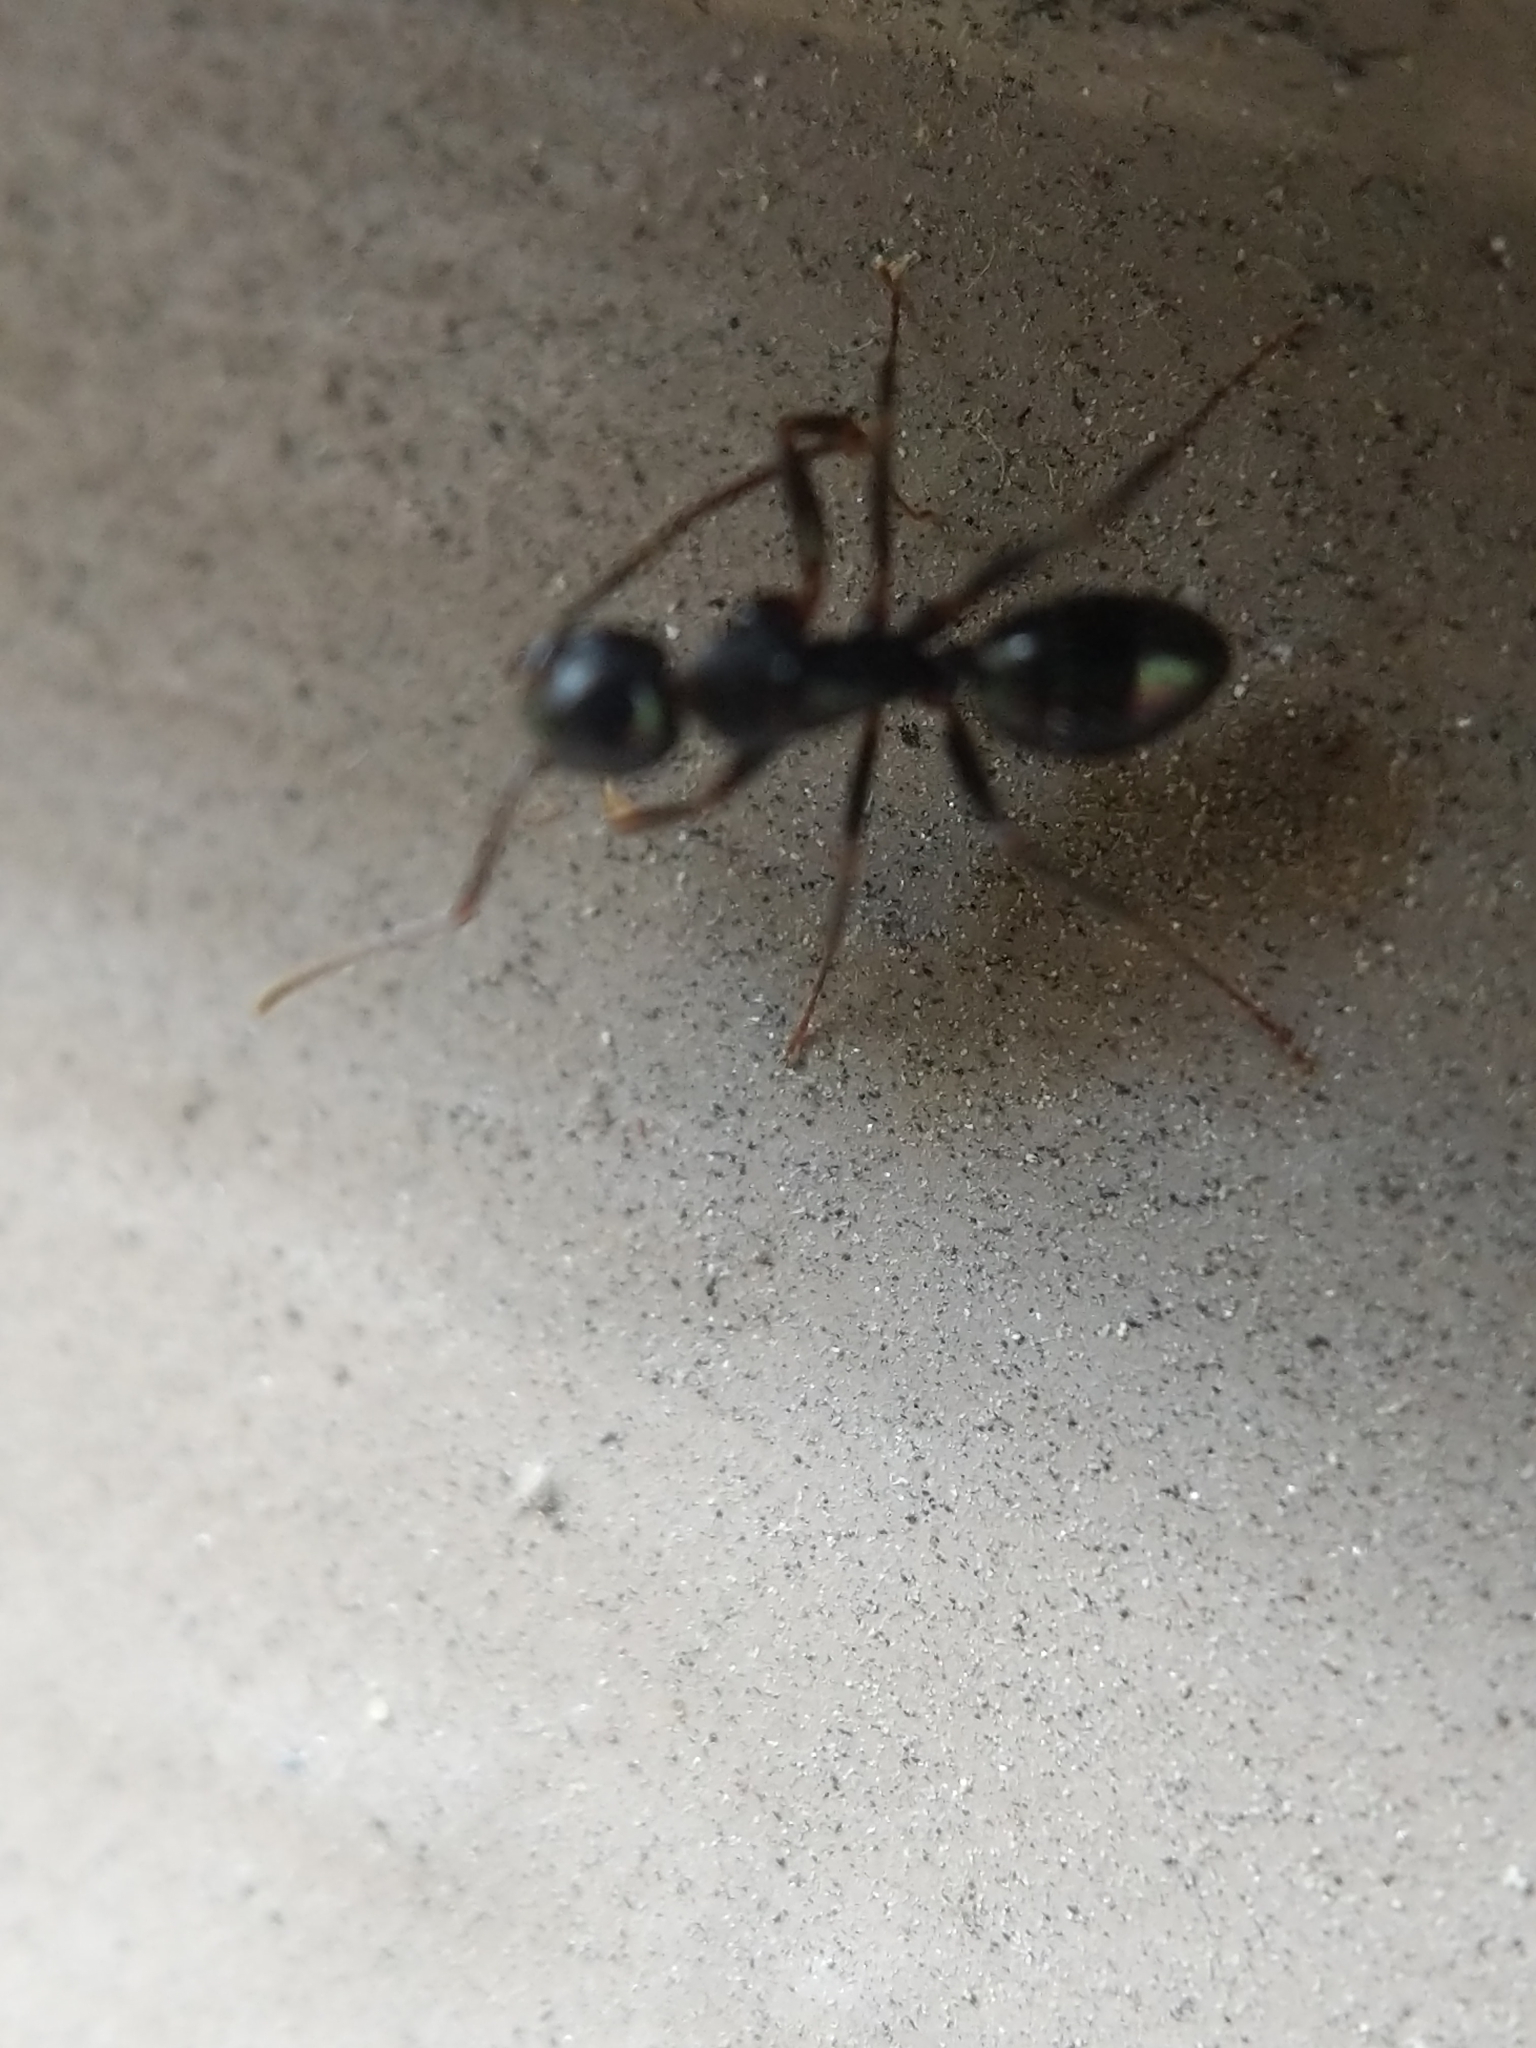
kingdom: Animalia
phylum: Arthropoda
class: Insecta
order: Hymenoptera
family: Formicidae
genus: Camponotus
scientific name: Camponotus nearcticus
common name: Smaller carpenter ant
